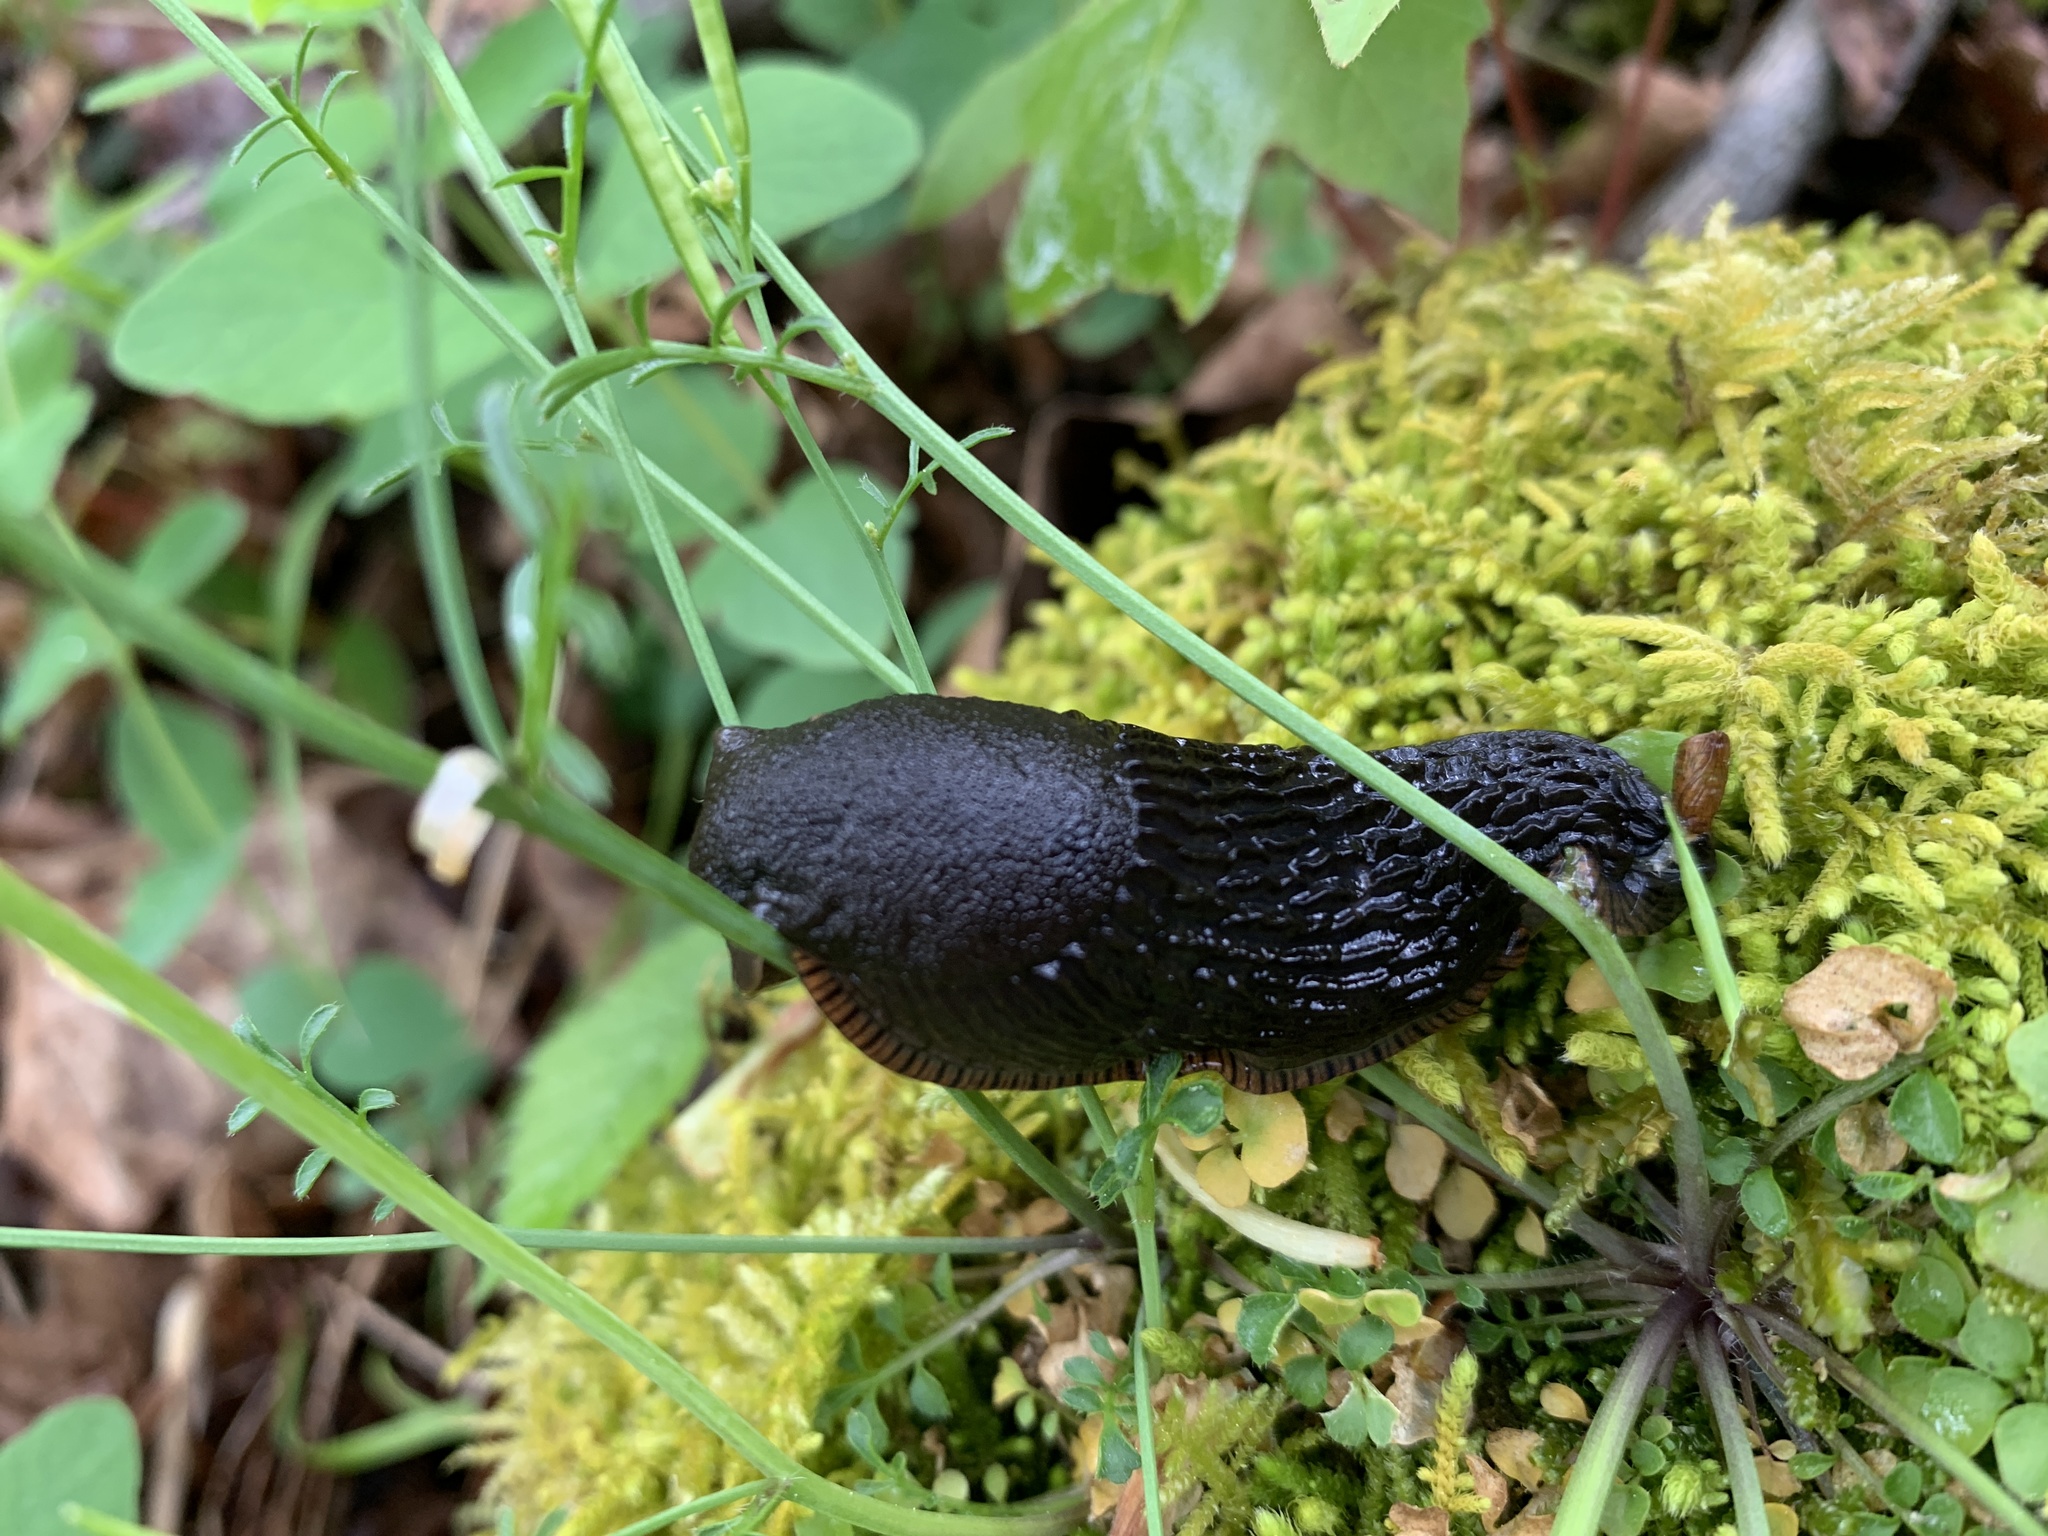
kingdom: Animalia
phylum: Mollusca
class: Gastropoda
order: Stylommatophora
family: Arionidae
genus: Arion
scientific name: Arion
